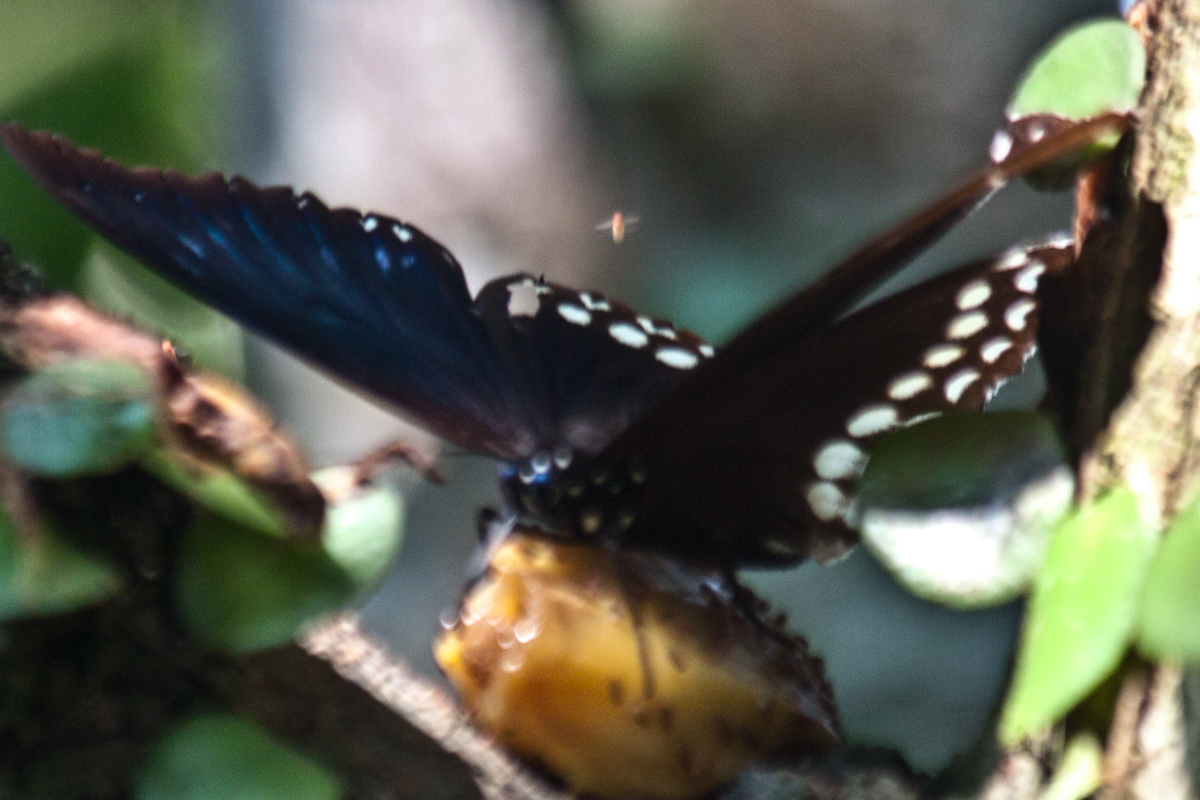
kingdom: Animalia
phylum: Arthropoda
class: Insecta
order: Lepidoptera
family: Nymphalidae
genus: Penthema
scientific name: Penthema darlisa
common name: Three-coloured kaiser
